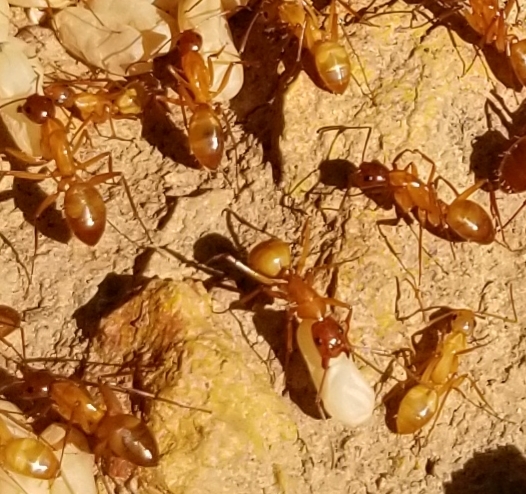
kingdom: Animalia
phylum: Arthropoda
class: Insecta
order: Hymenoptera
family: Formicidae
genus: Camponotus
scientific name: Camponotus castaneus
